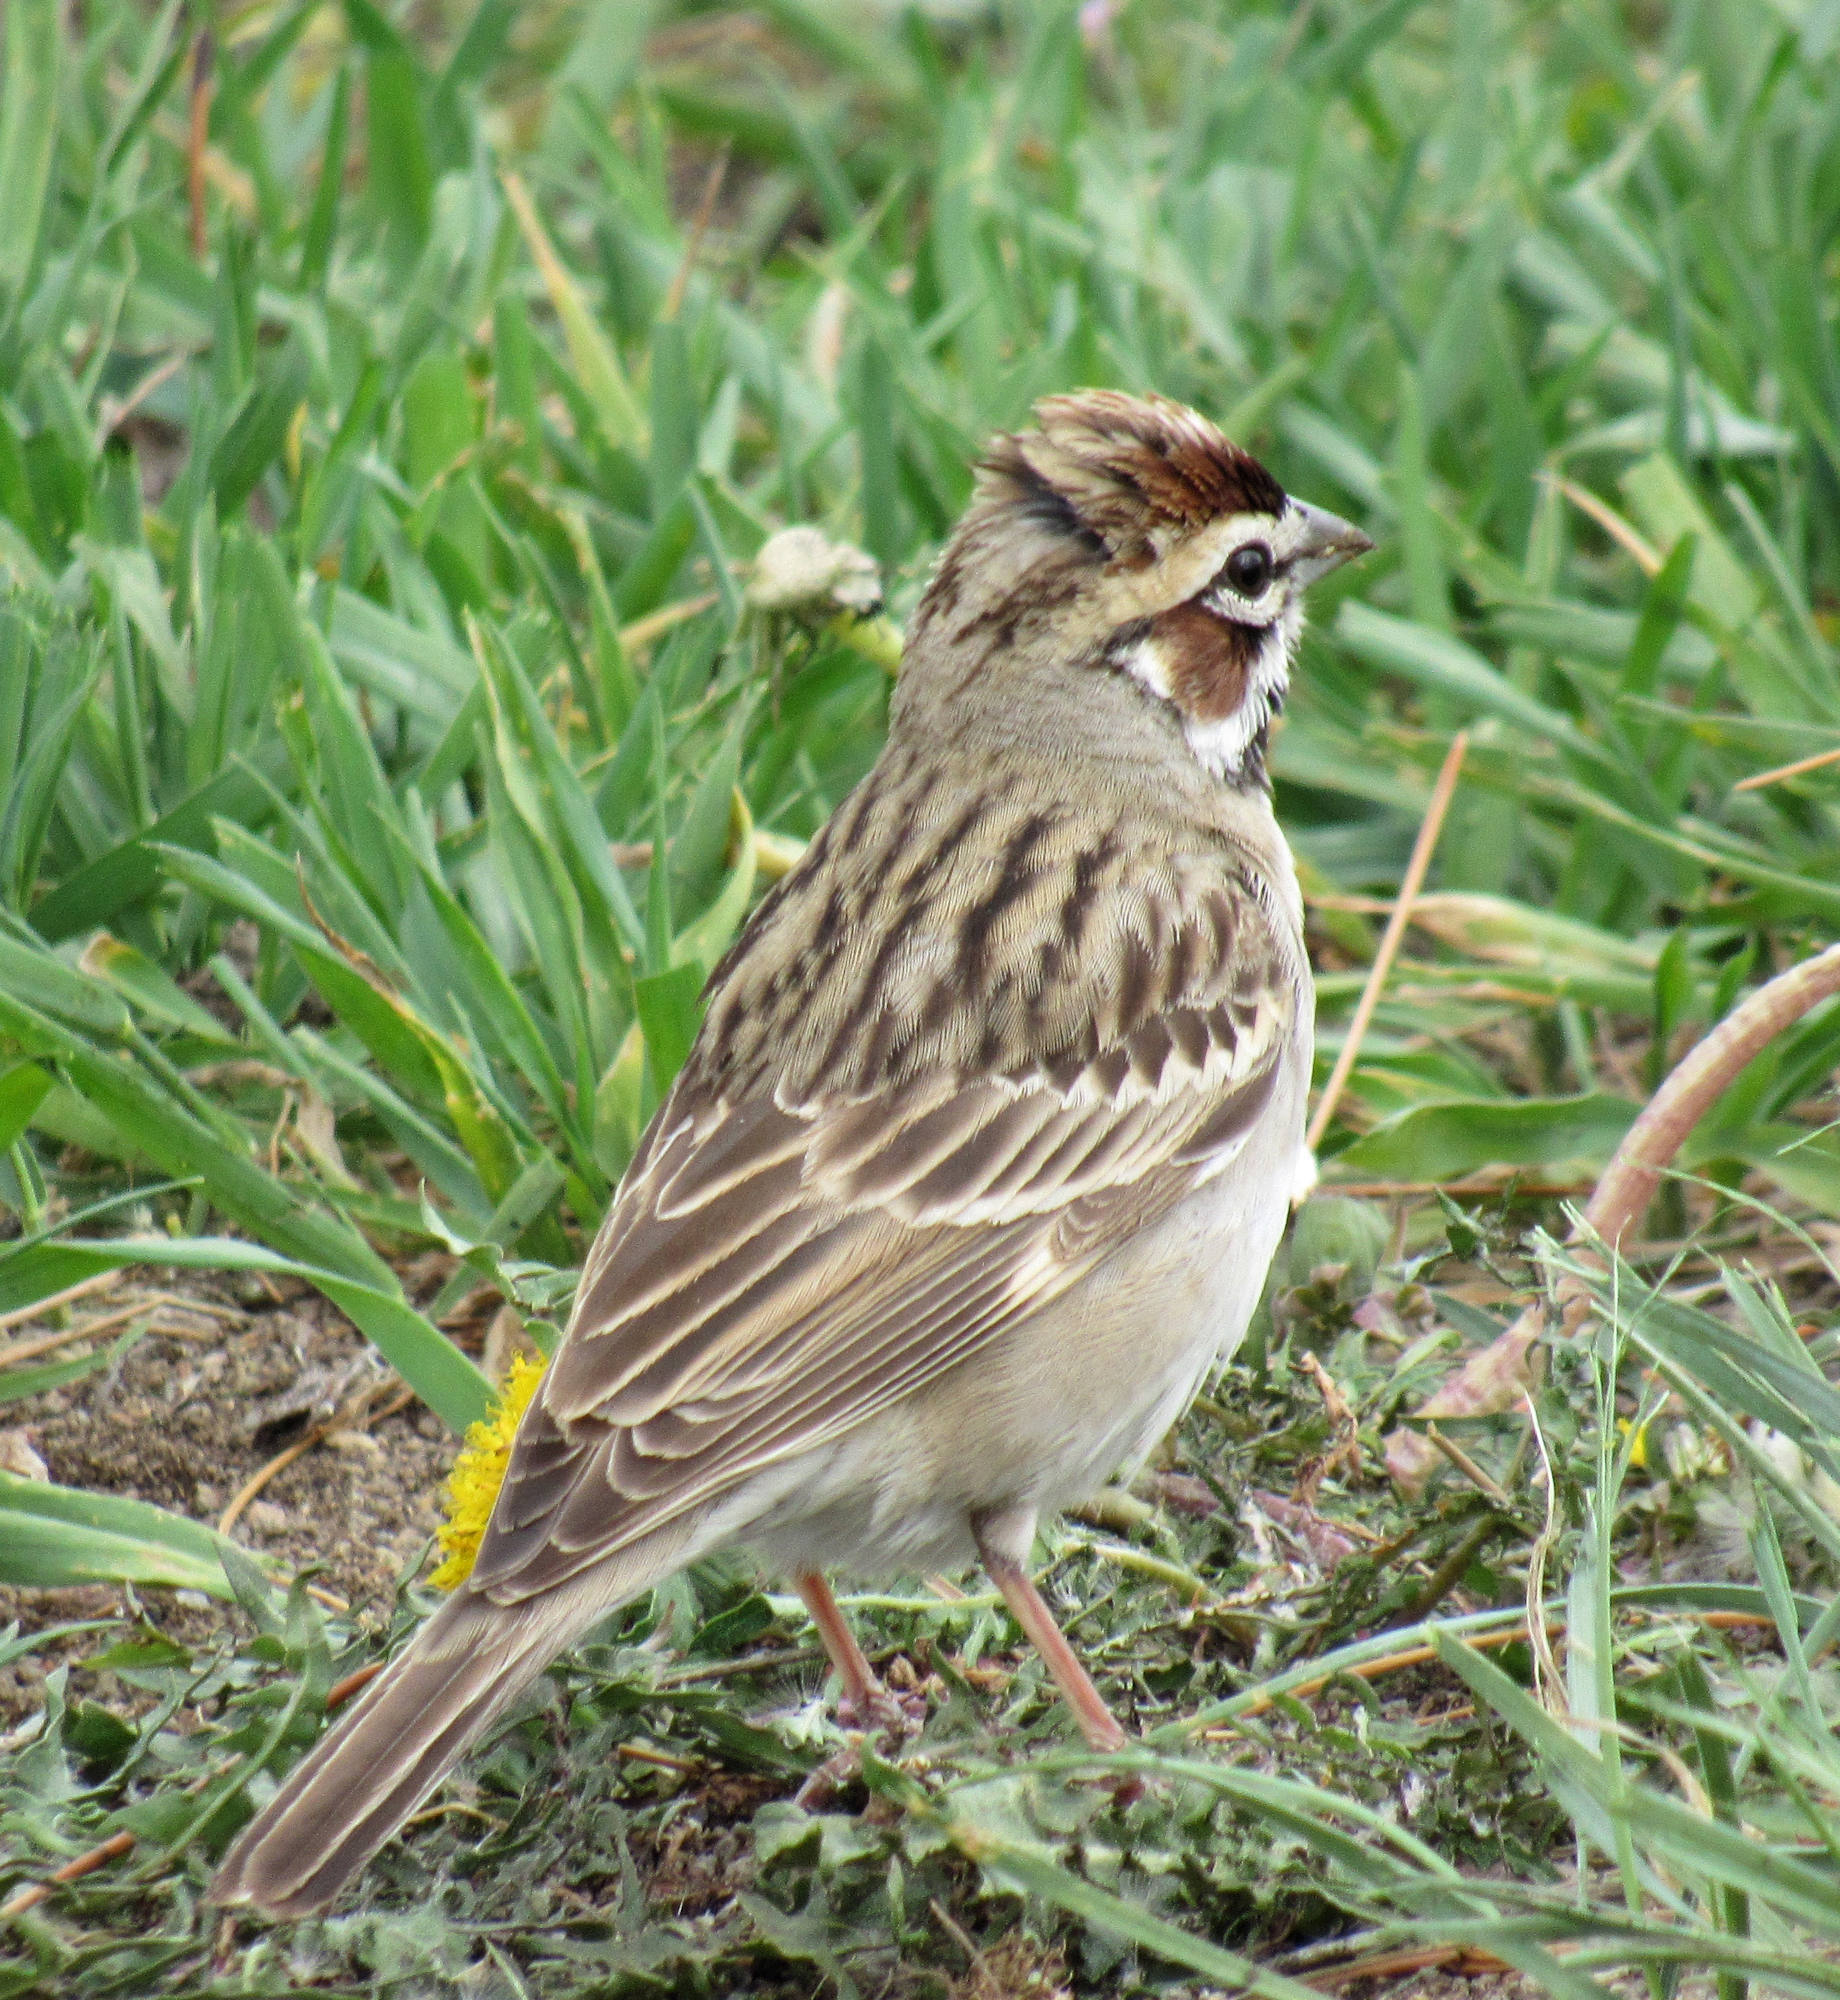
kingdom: Animalia
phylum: Chordata
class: Aves
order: Passeriformes
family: Passerellidae
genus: Chondestes
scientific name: Chondestes grammacus
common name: Lark sparrow
